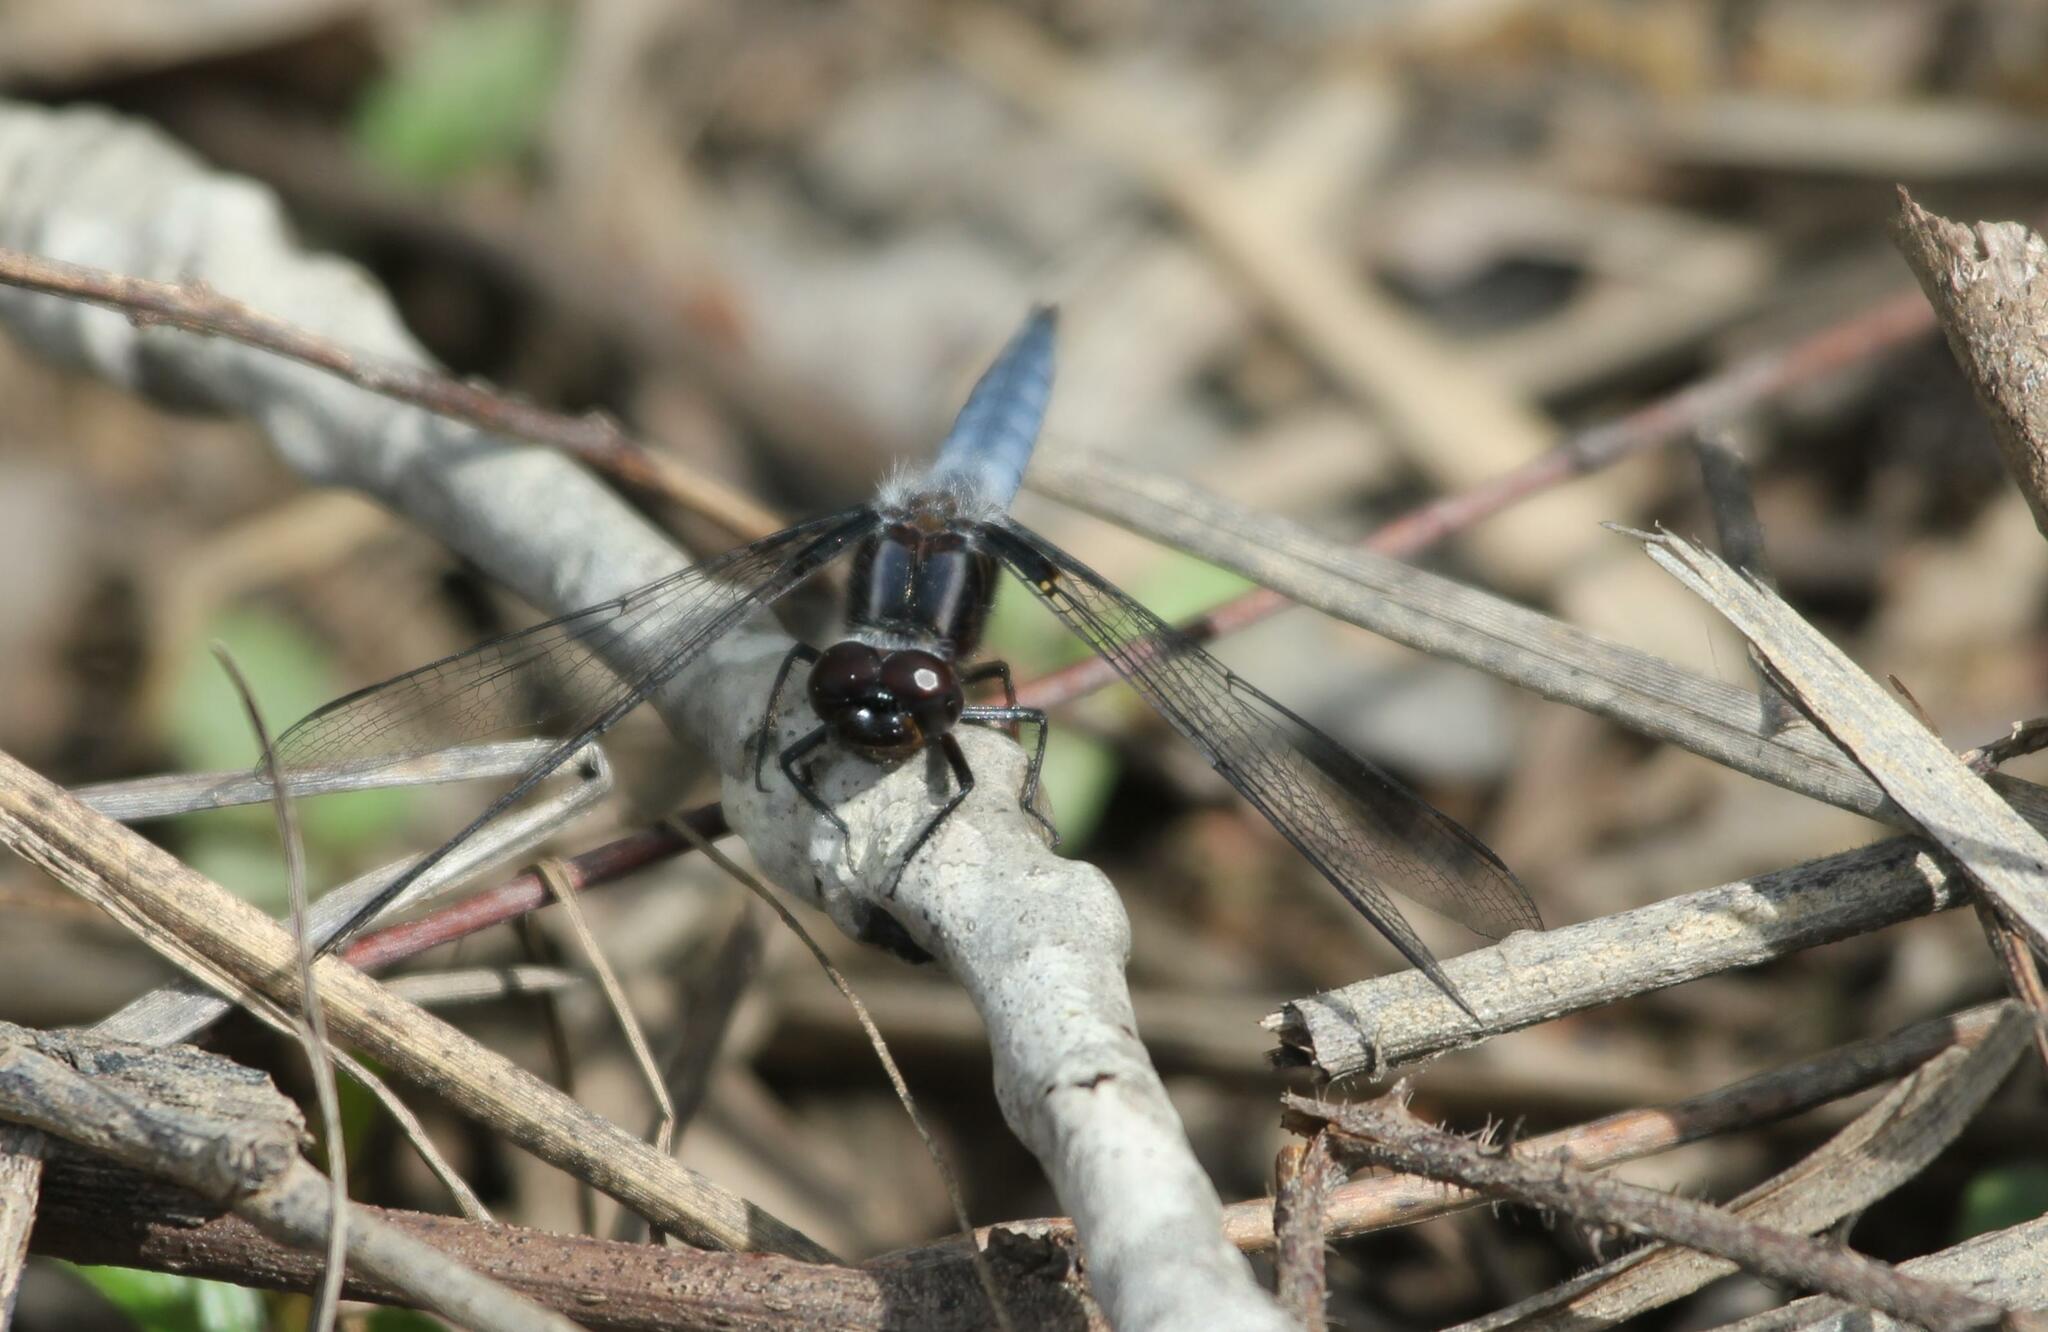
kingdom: Animalia
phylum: Arthropoda
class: Insecta
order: Odonata
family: Libellulidae
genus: Ladona
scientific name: Ladona deplanata
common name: Blue corporal
